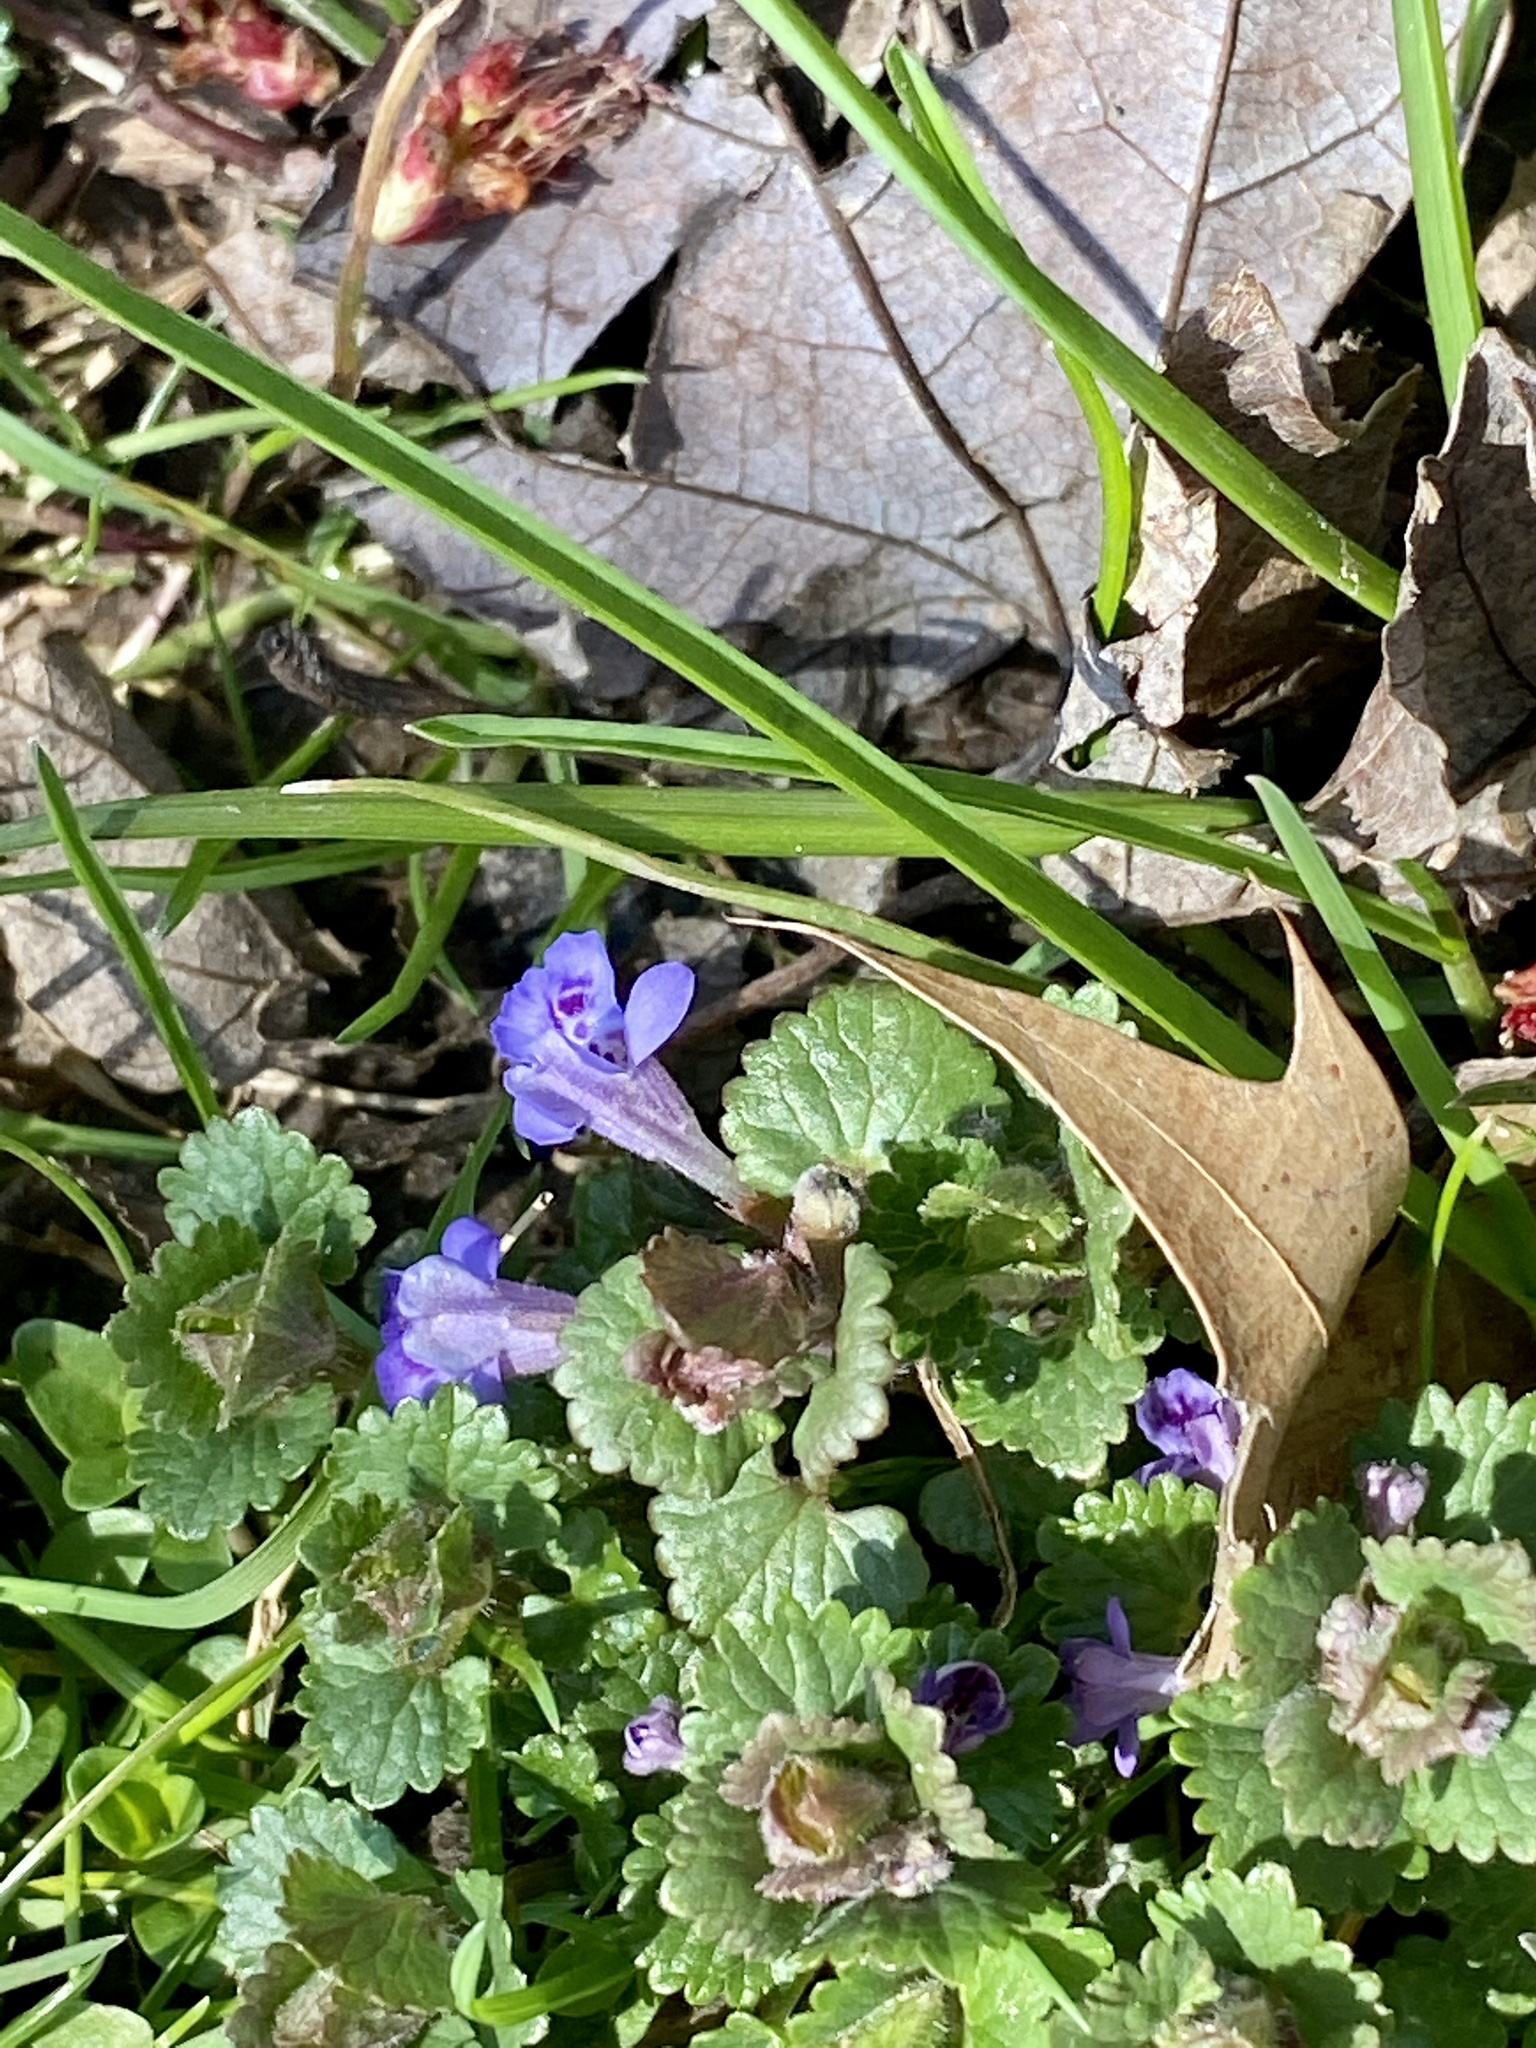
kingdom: Plantae
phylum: Tracheophyta
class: Magnoliopsida
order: Lamiales
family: Lamiaceae
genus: Glechoma
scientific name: Glechoma hederacea
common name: Ground ivy
